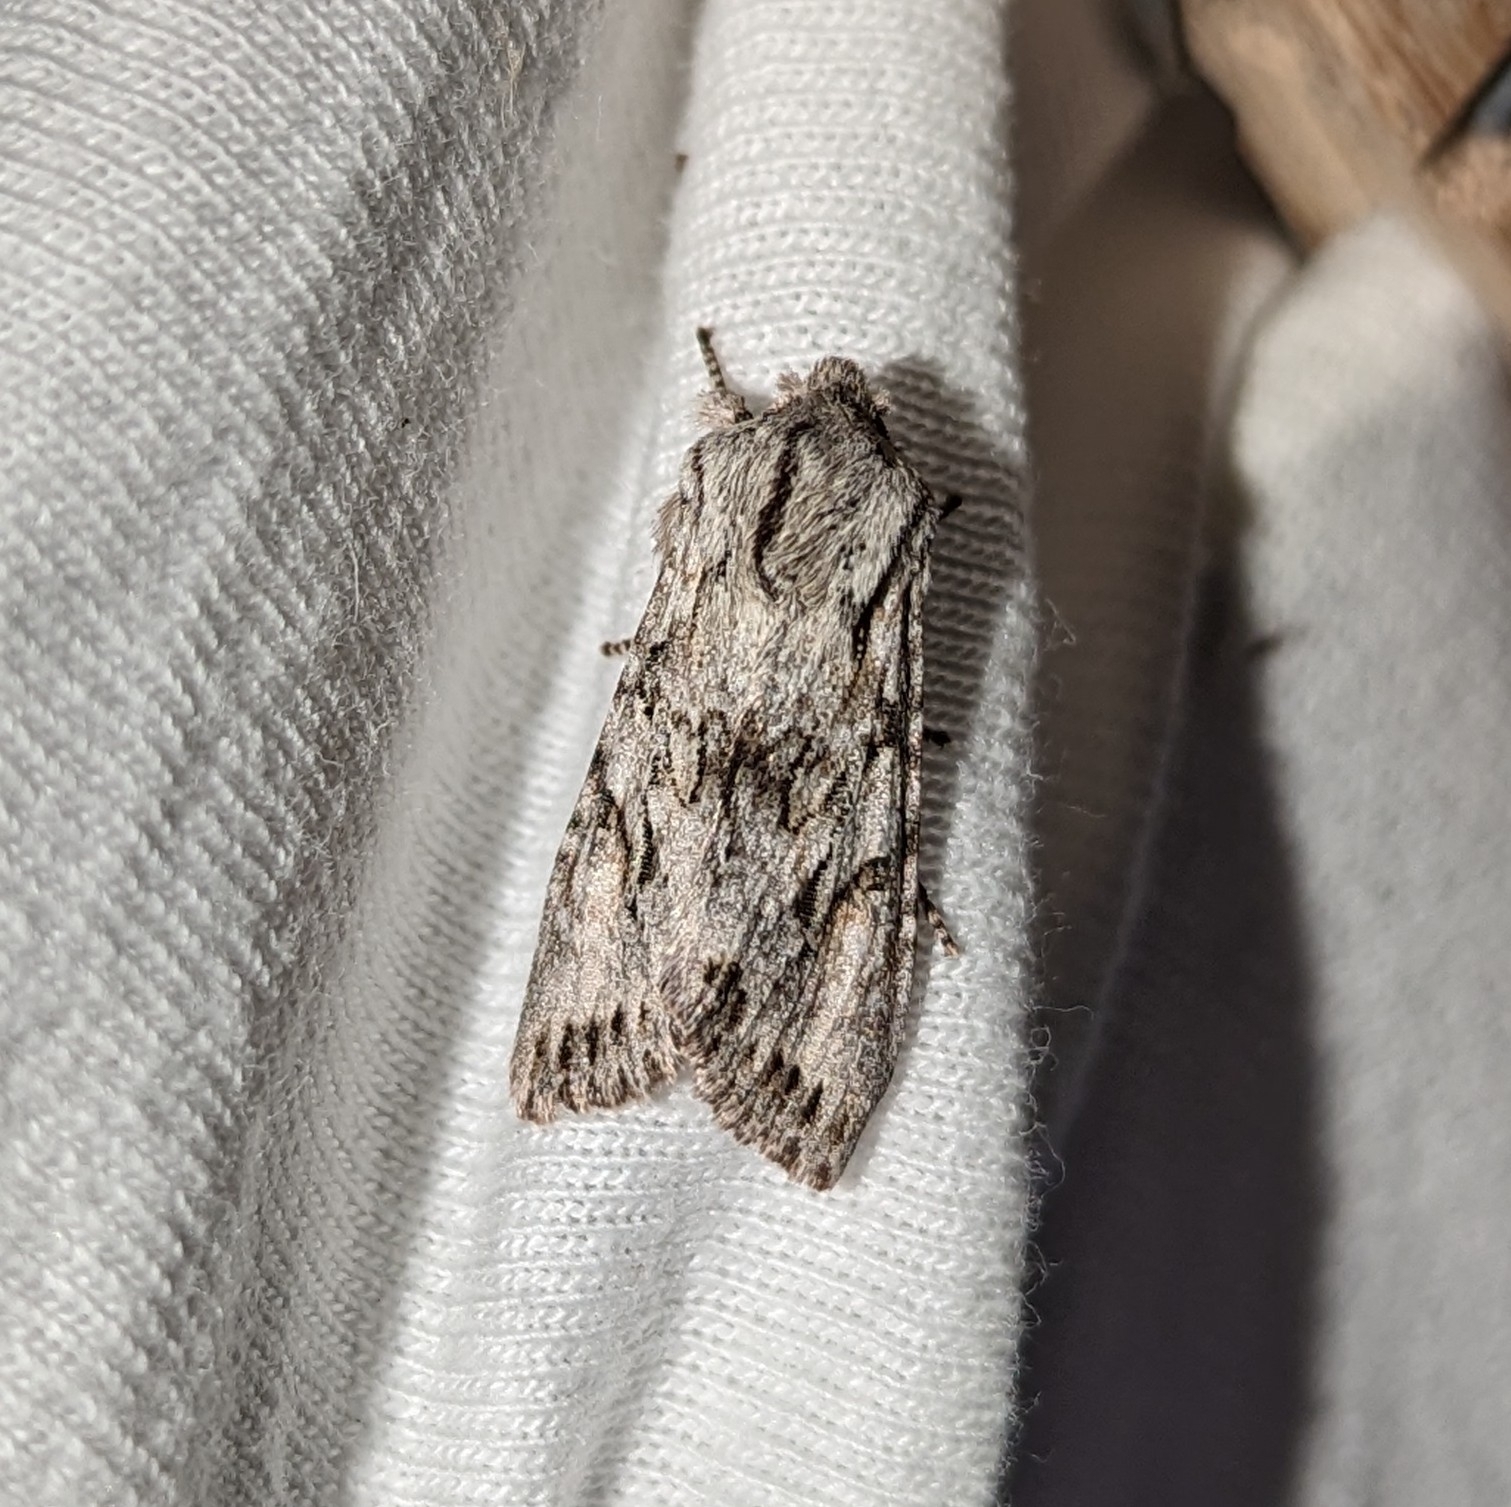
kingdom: Animalia
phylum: Arthropoda
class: Insecta
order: Lepidoptera
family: Noctuidae
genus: Egira
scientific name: Egira simplex
